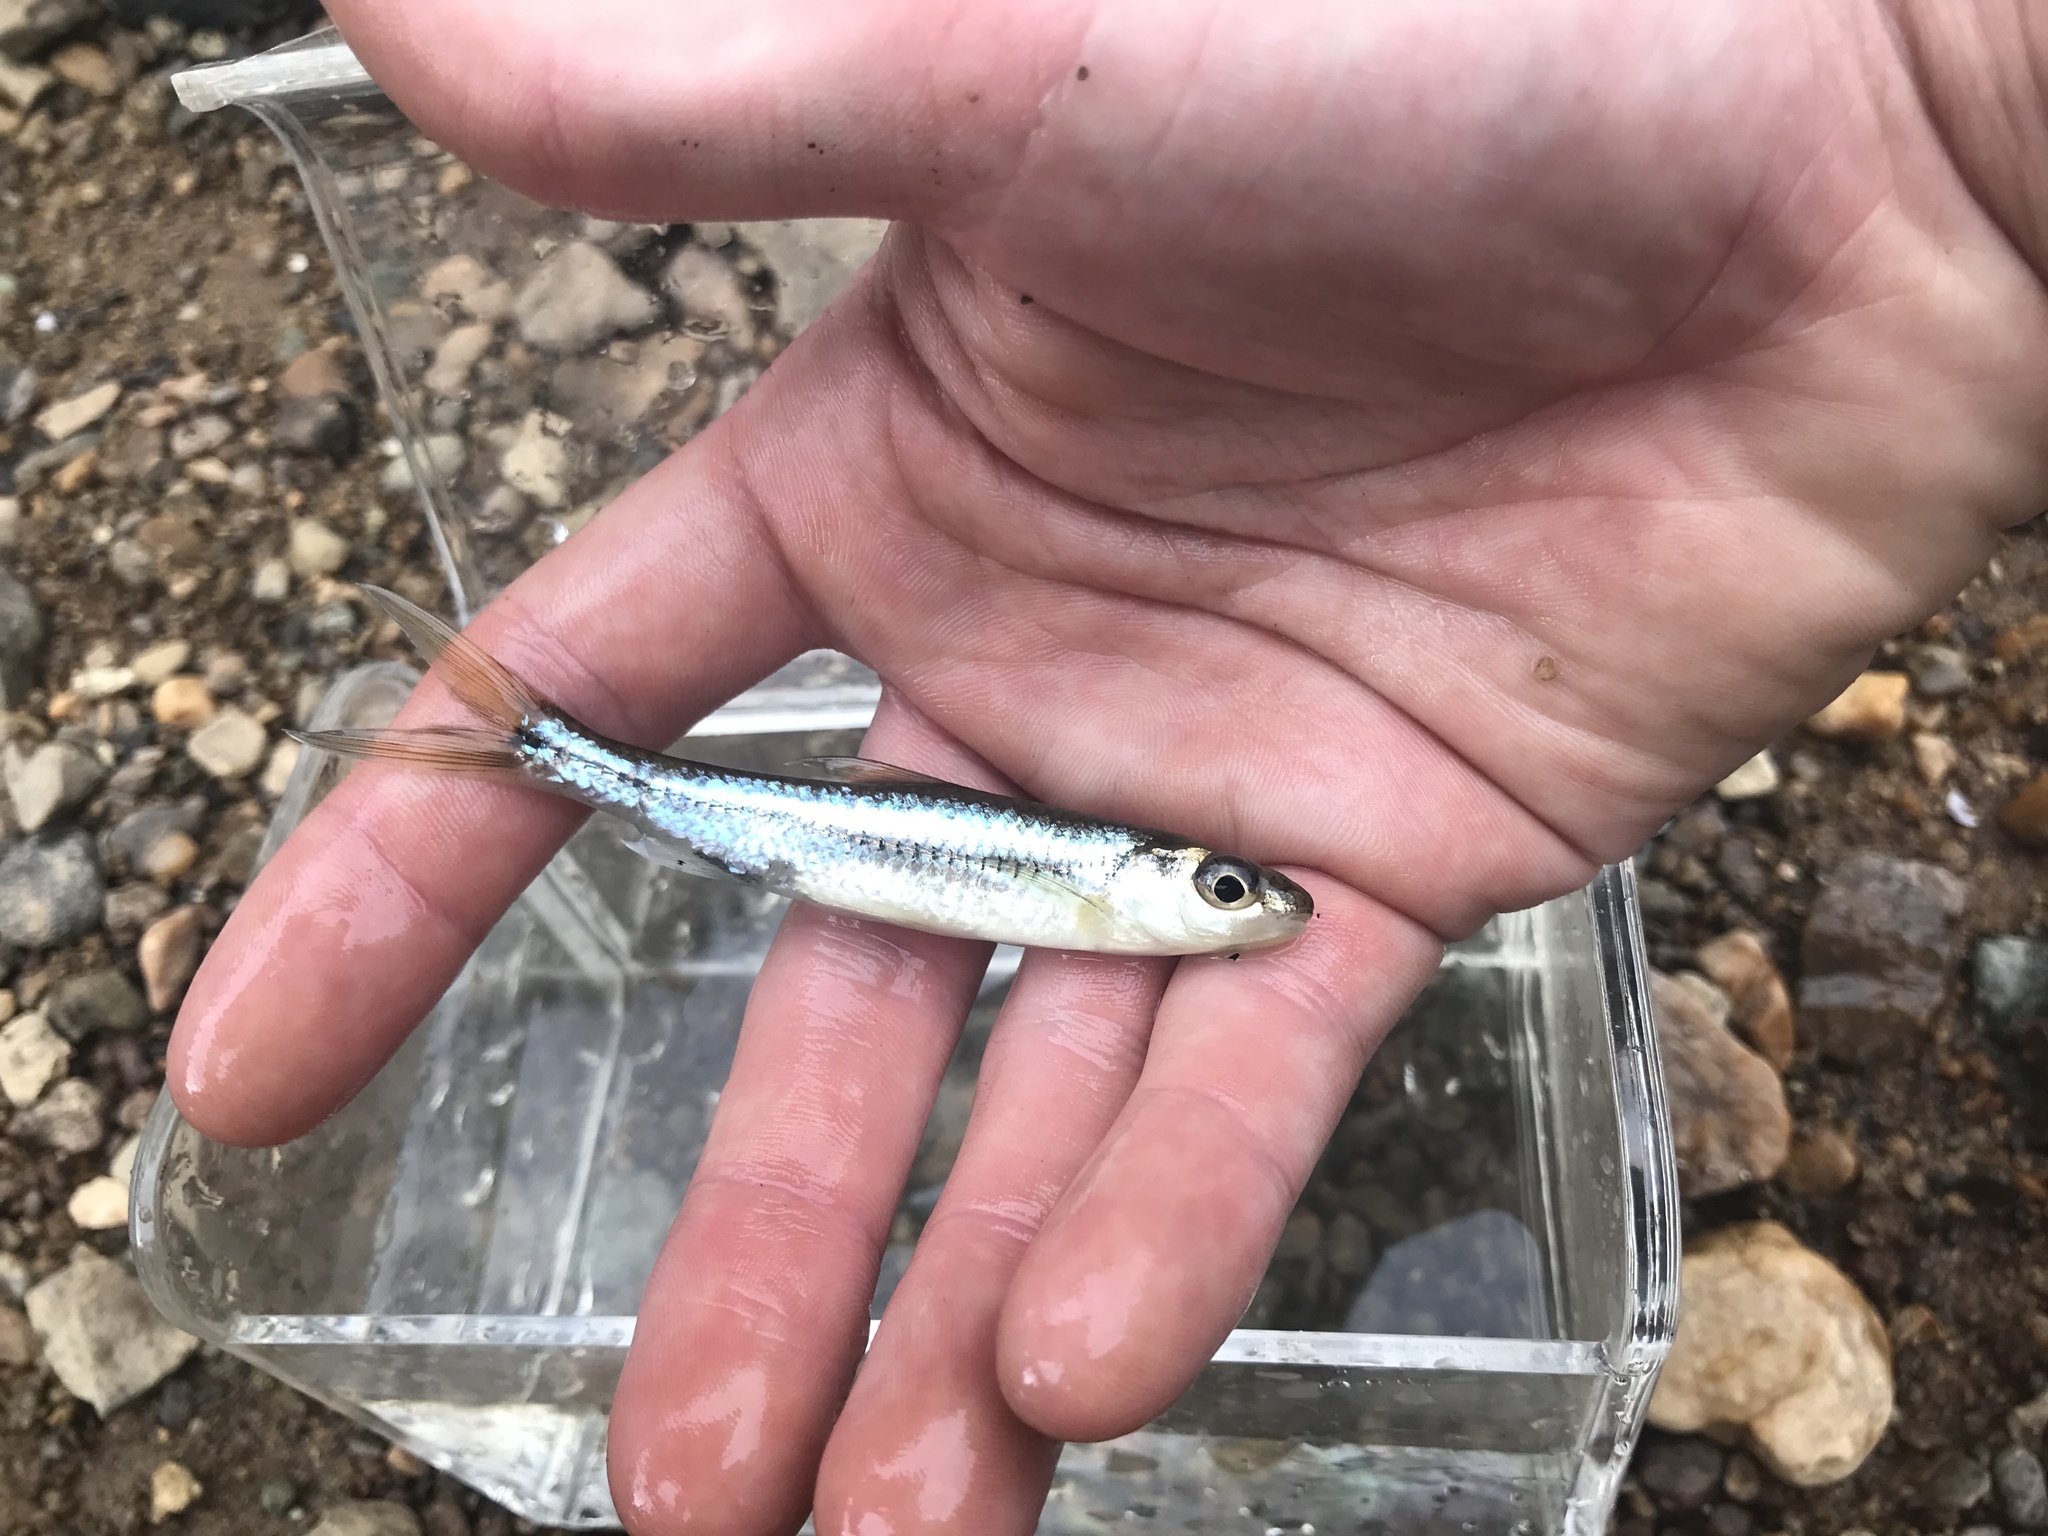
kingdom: Animalia
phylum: Chordata
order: Cypriniformes
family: Cyprinidae
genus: Notropis
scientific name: Notropis
